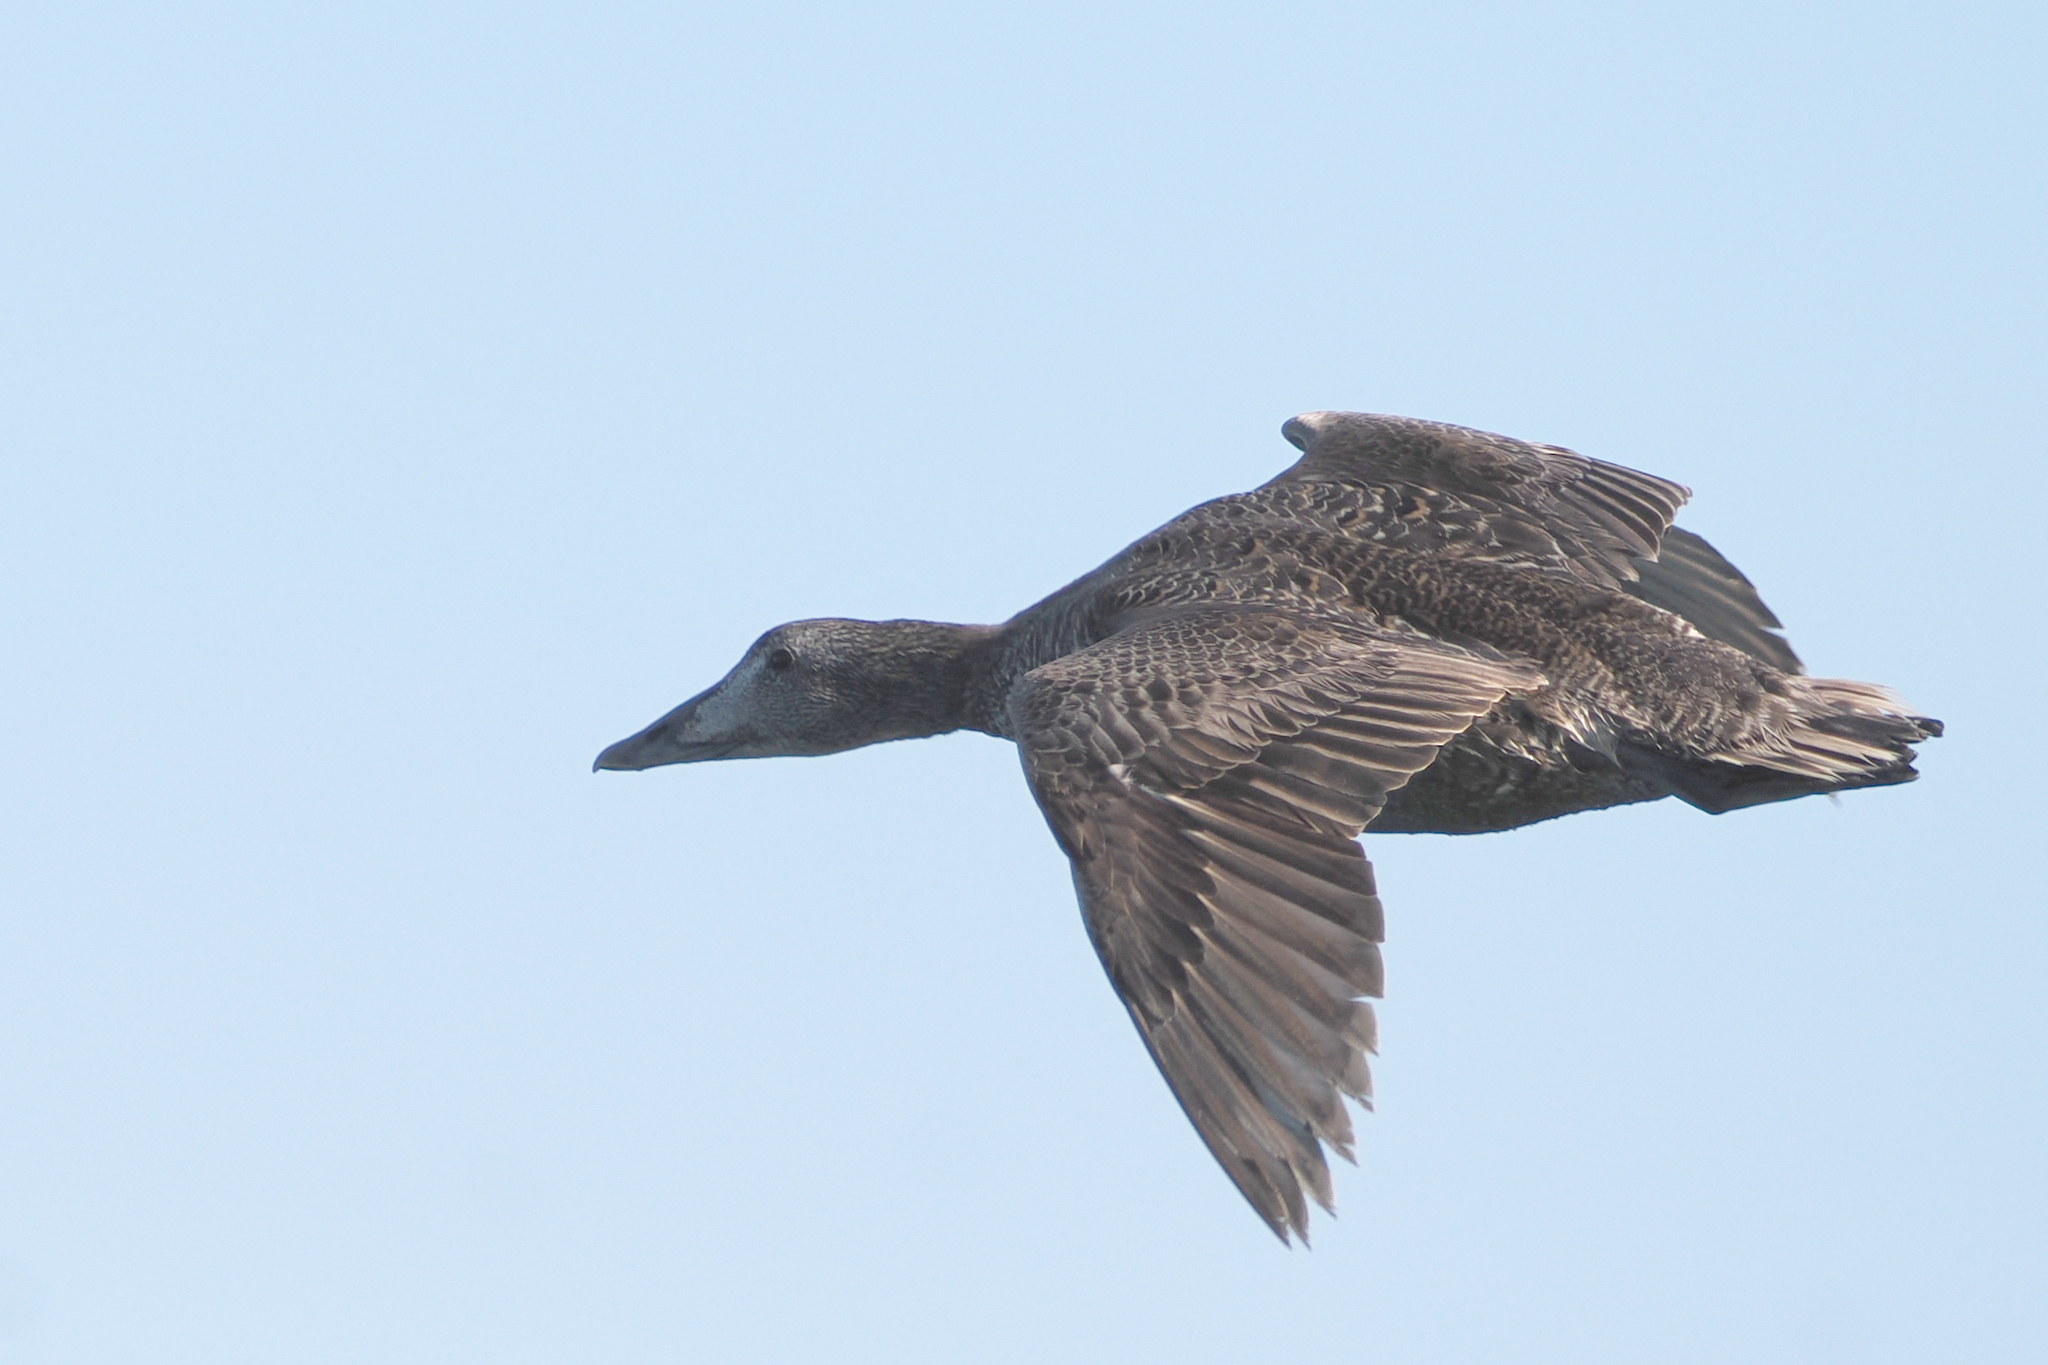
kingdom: Animalia
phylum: Chordata
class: Aves
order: Anseriformes
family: Anatidae
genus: Somateria
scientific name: Somateria mollissima
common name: Common eider
